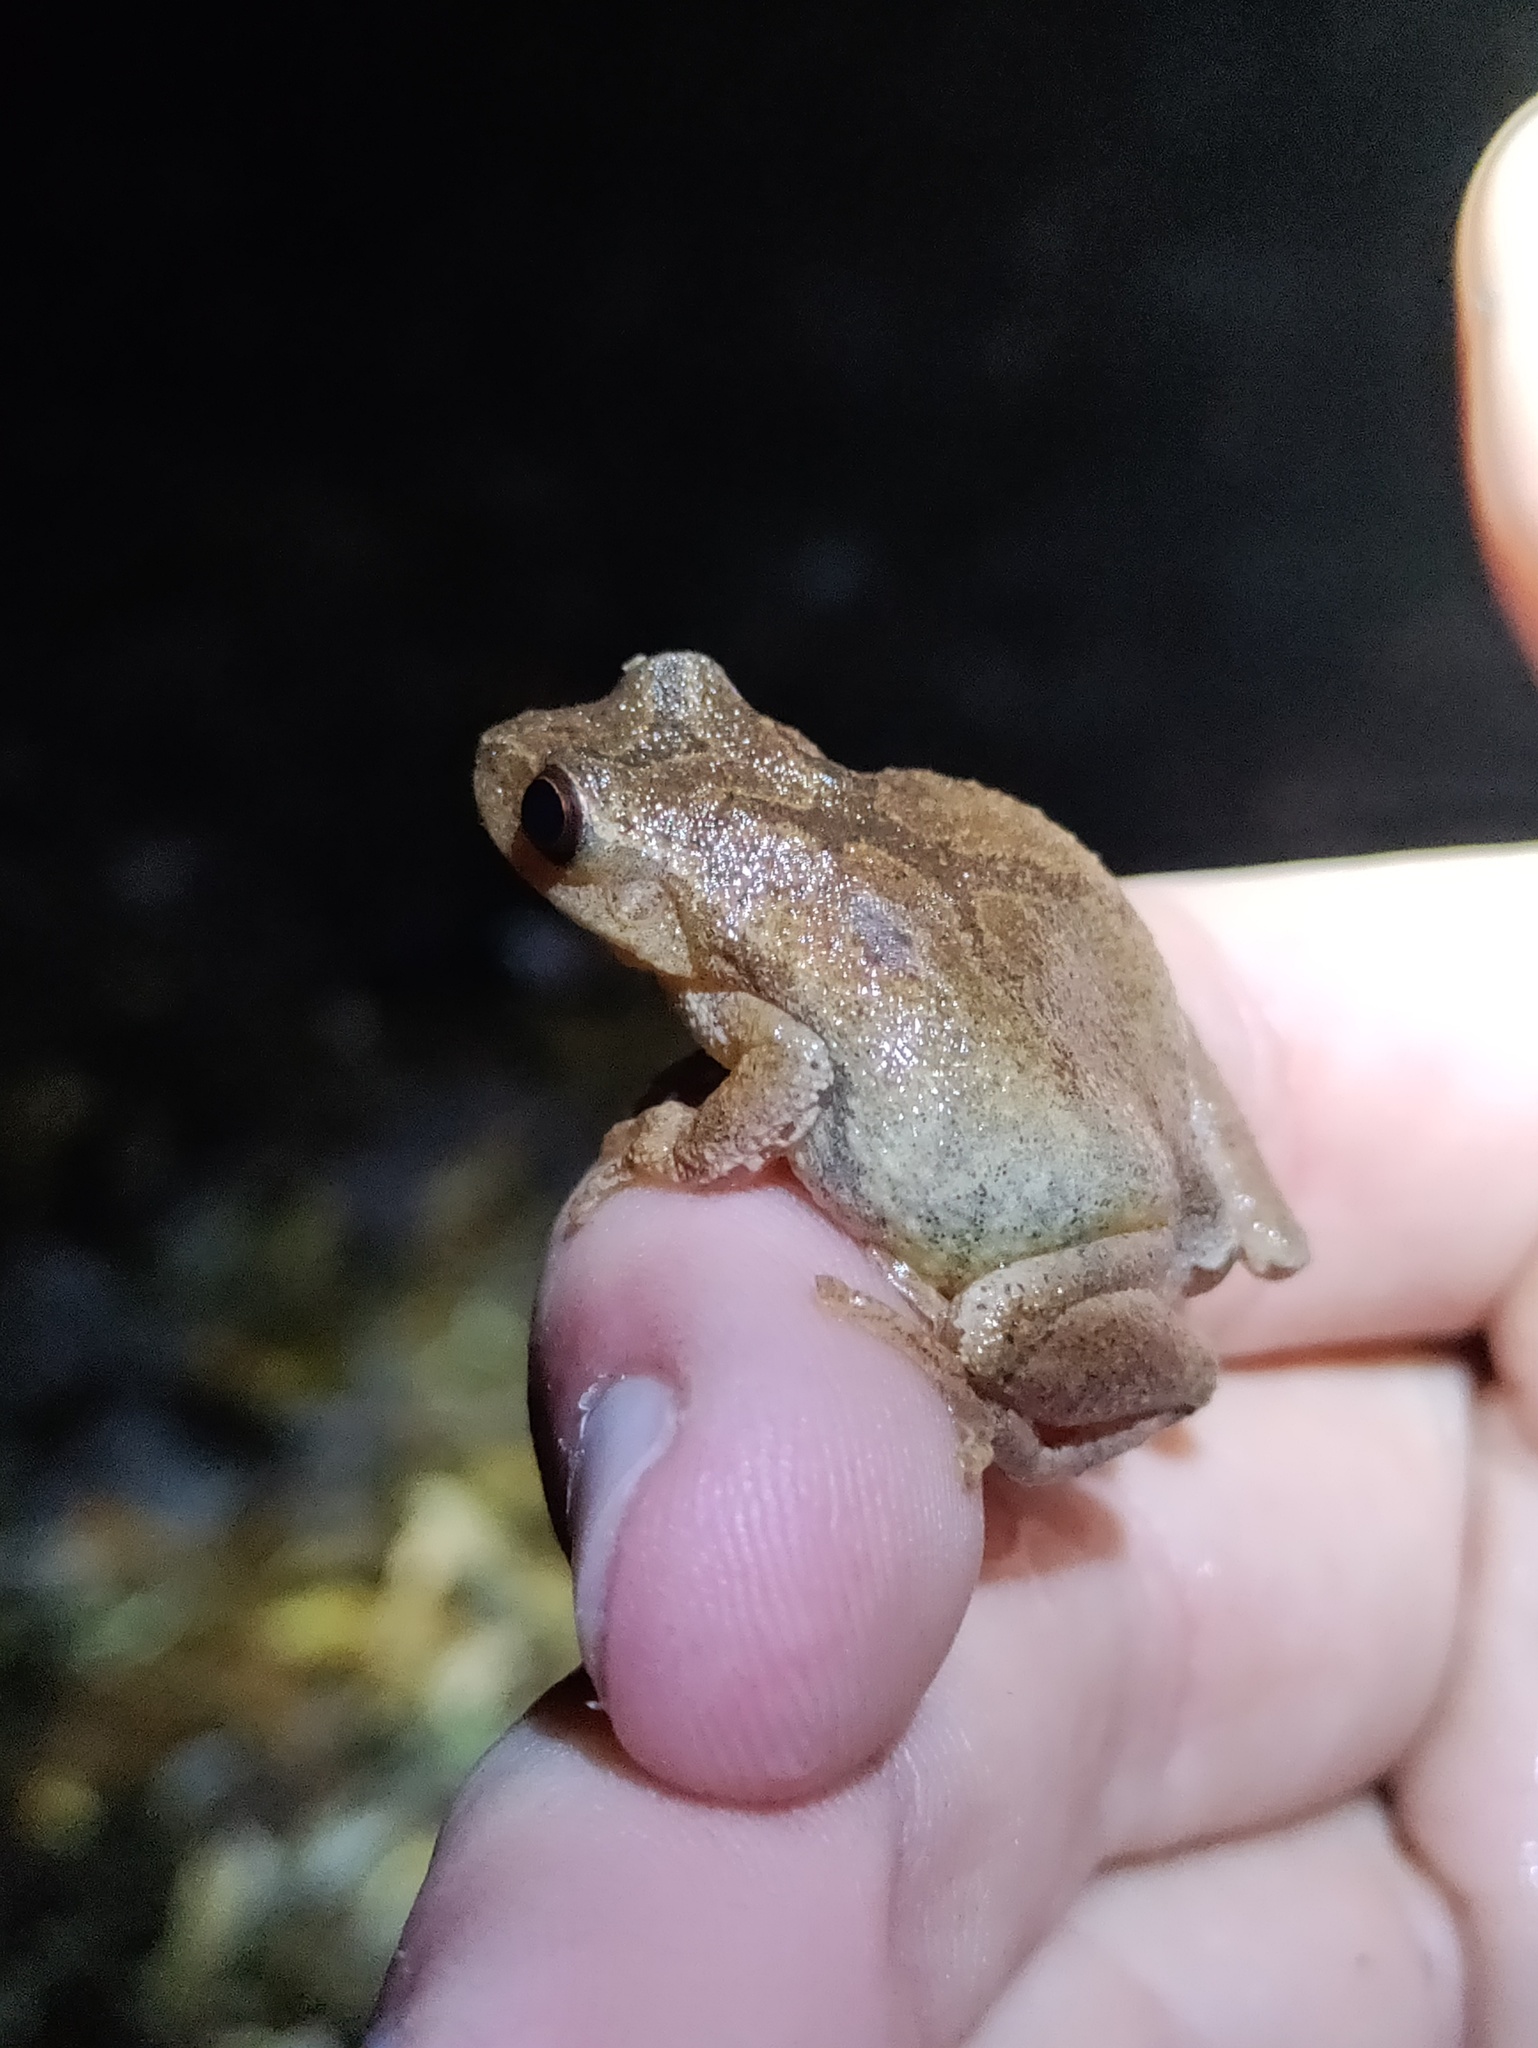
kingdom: Animalia
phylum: Chordata
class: Amphibia
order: Anura
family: Hylidae
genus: Pseudacris
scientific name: Pseudacris crucifer
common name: Spring peeper
